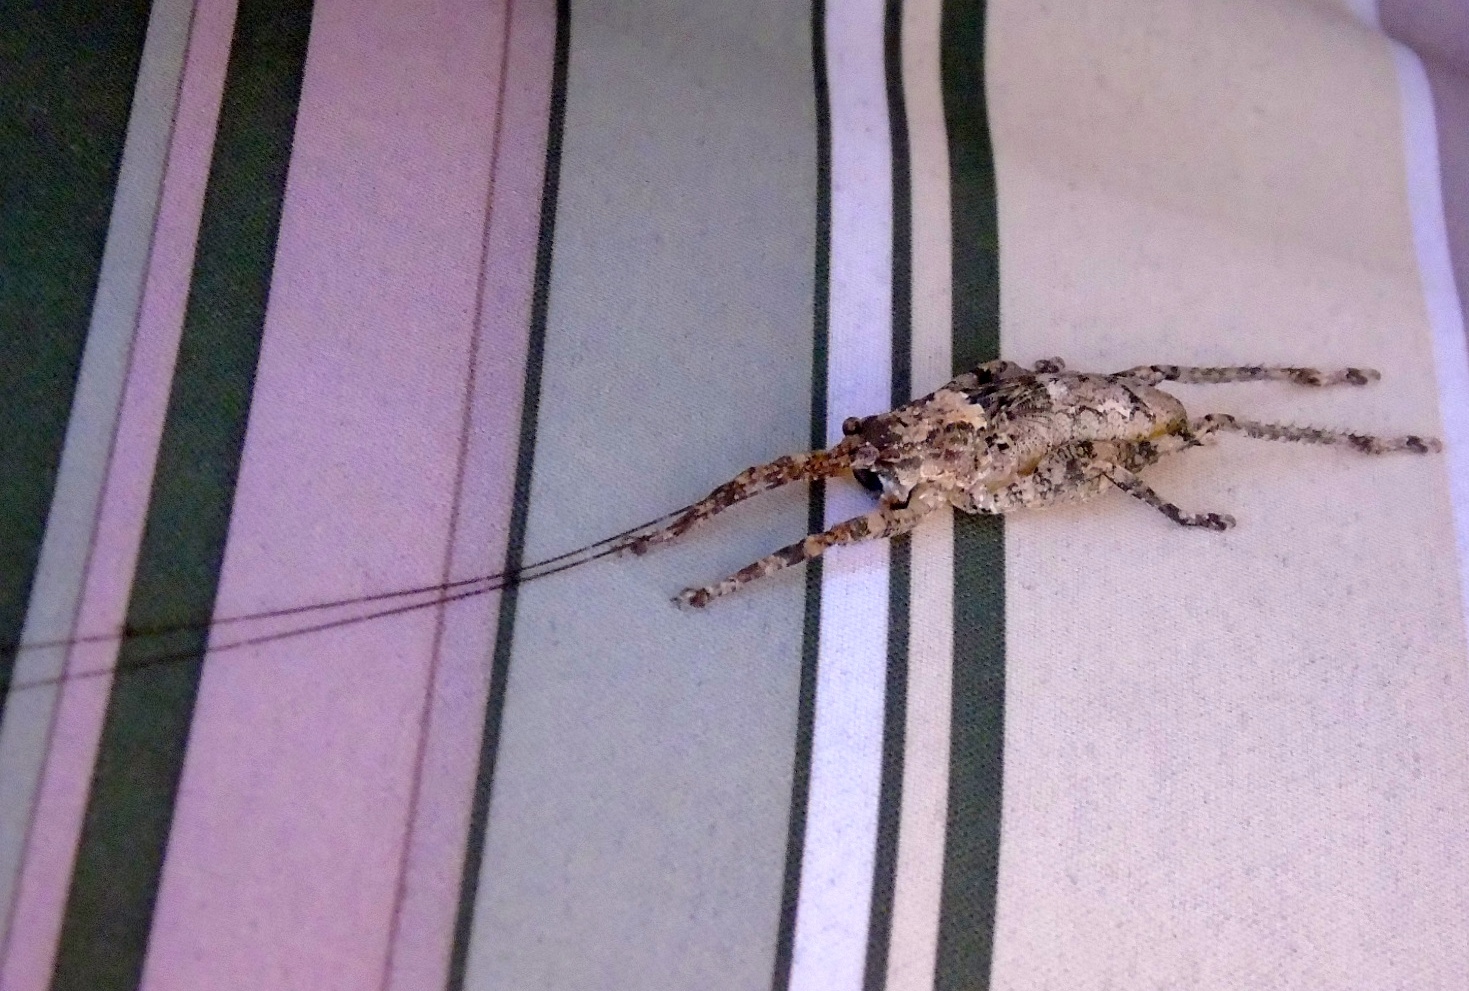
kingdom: Animalia
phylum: Arthropoda
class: Insecta
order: Orthoptera
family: Tettigoniidae
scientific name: Tettigoniidae
